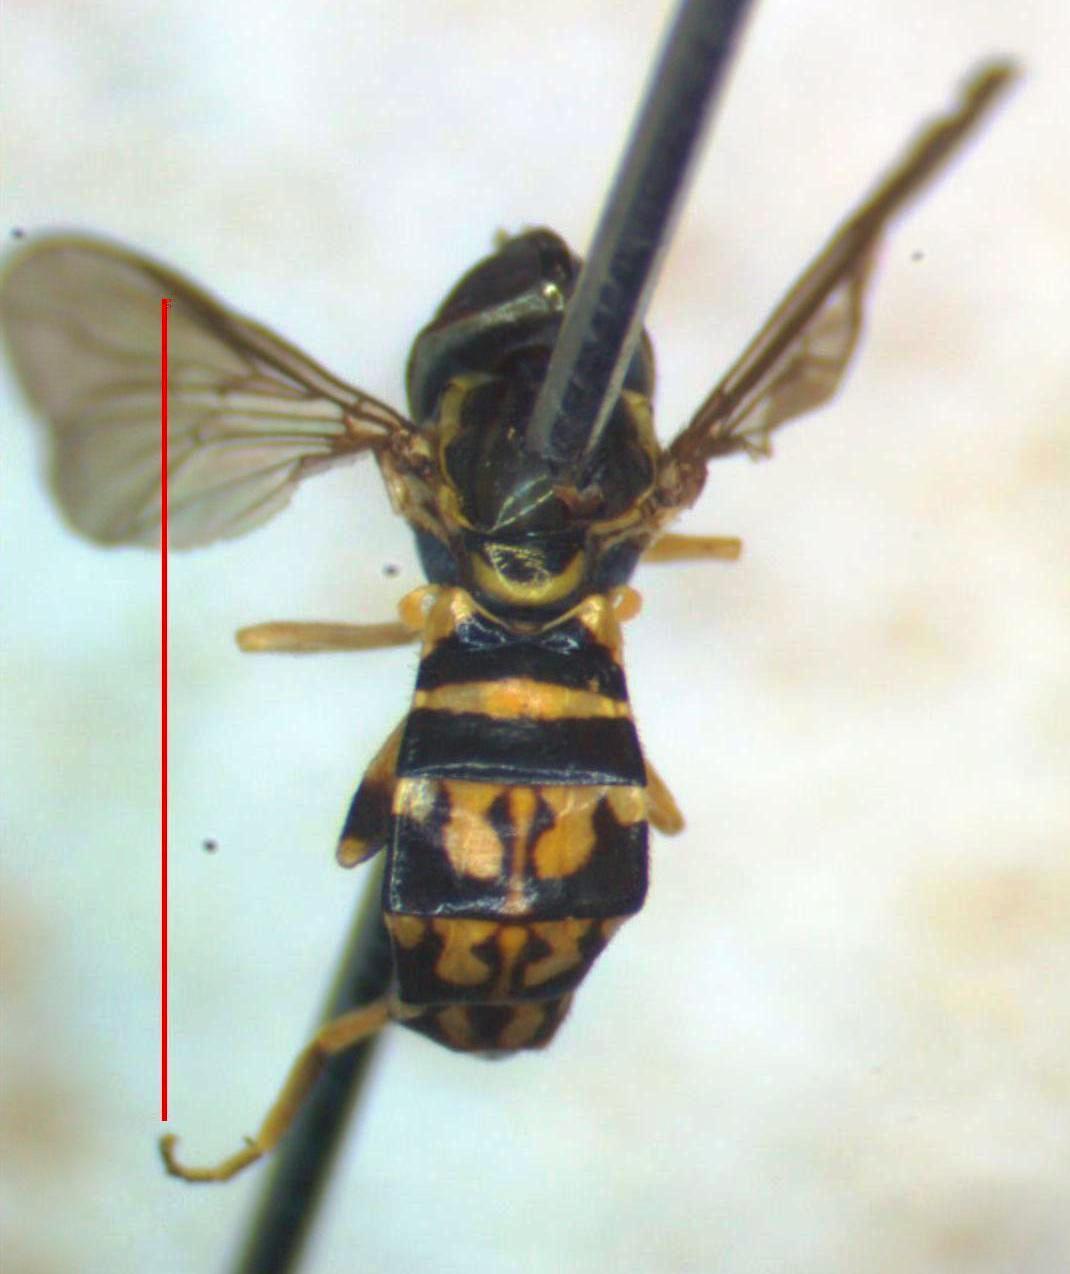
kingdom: Animalia
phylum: Arthropoda
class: Insecta
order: Diptera
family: Syrphidae
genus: Toxomerus
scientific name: Toxomerus pictus
